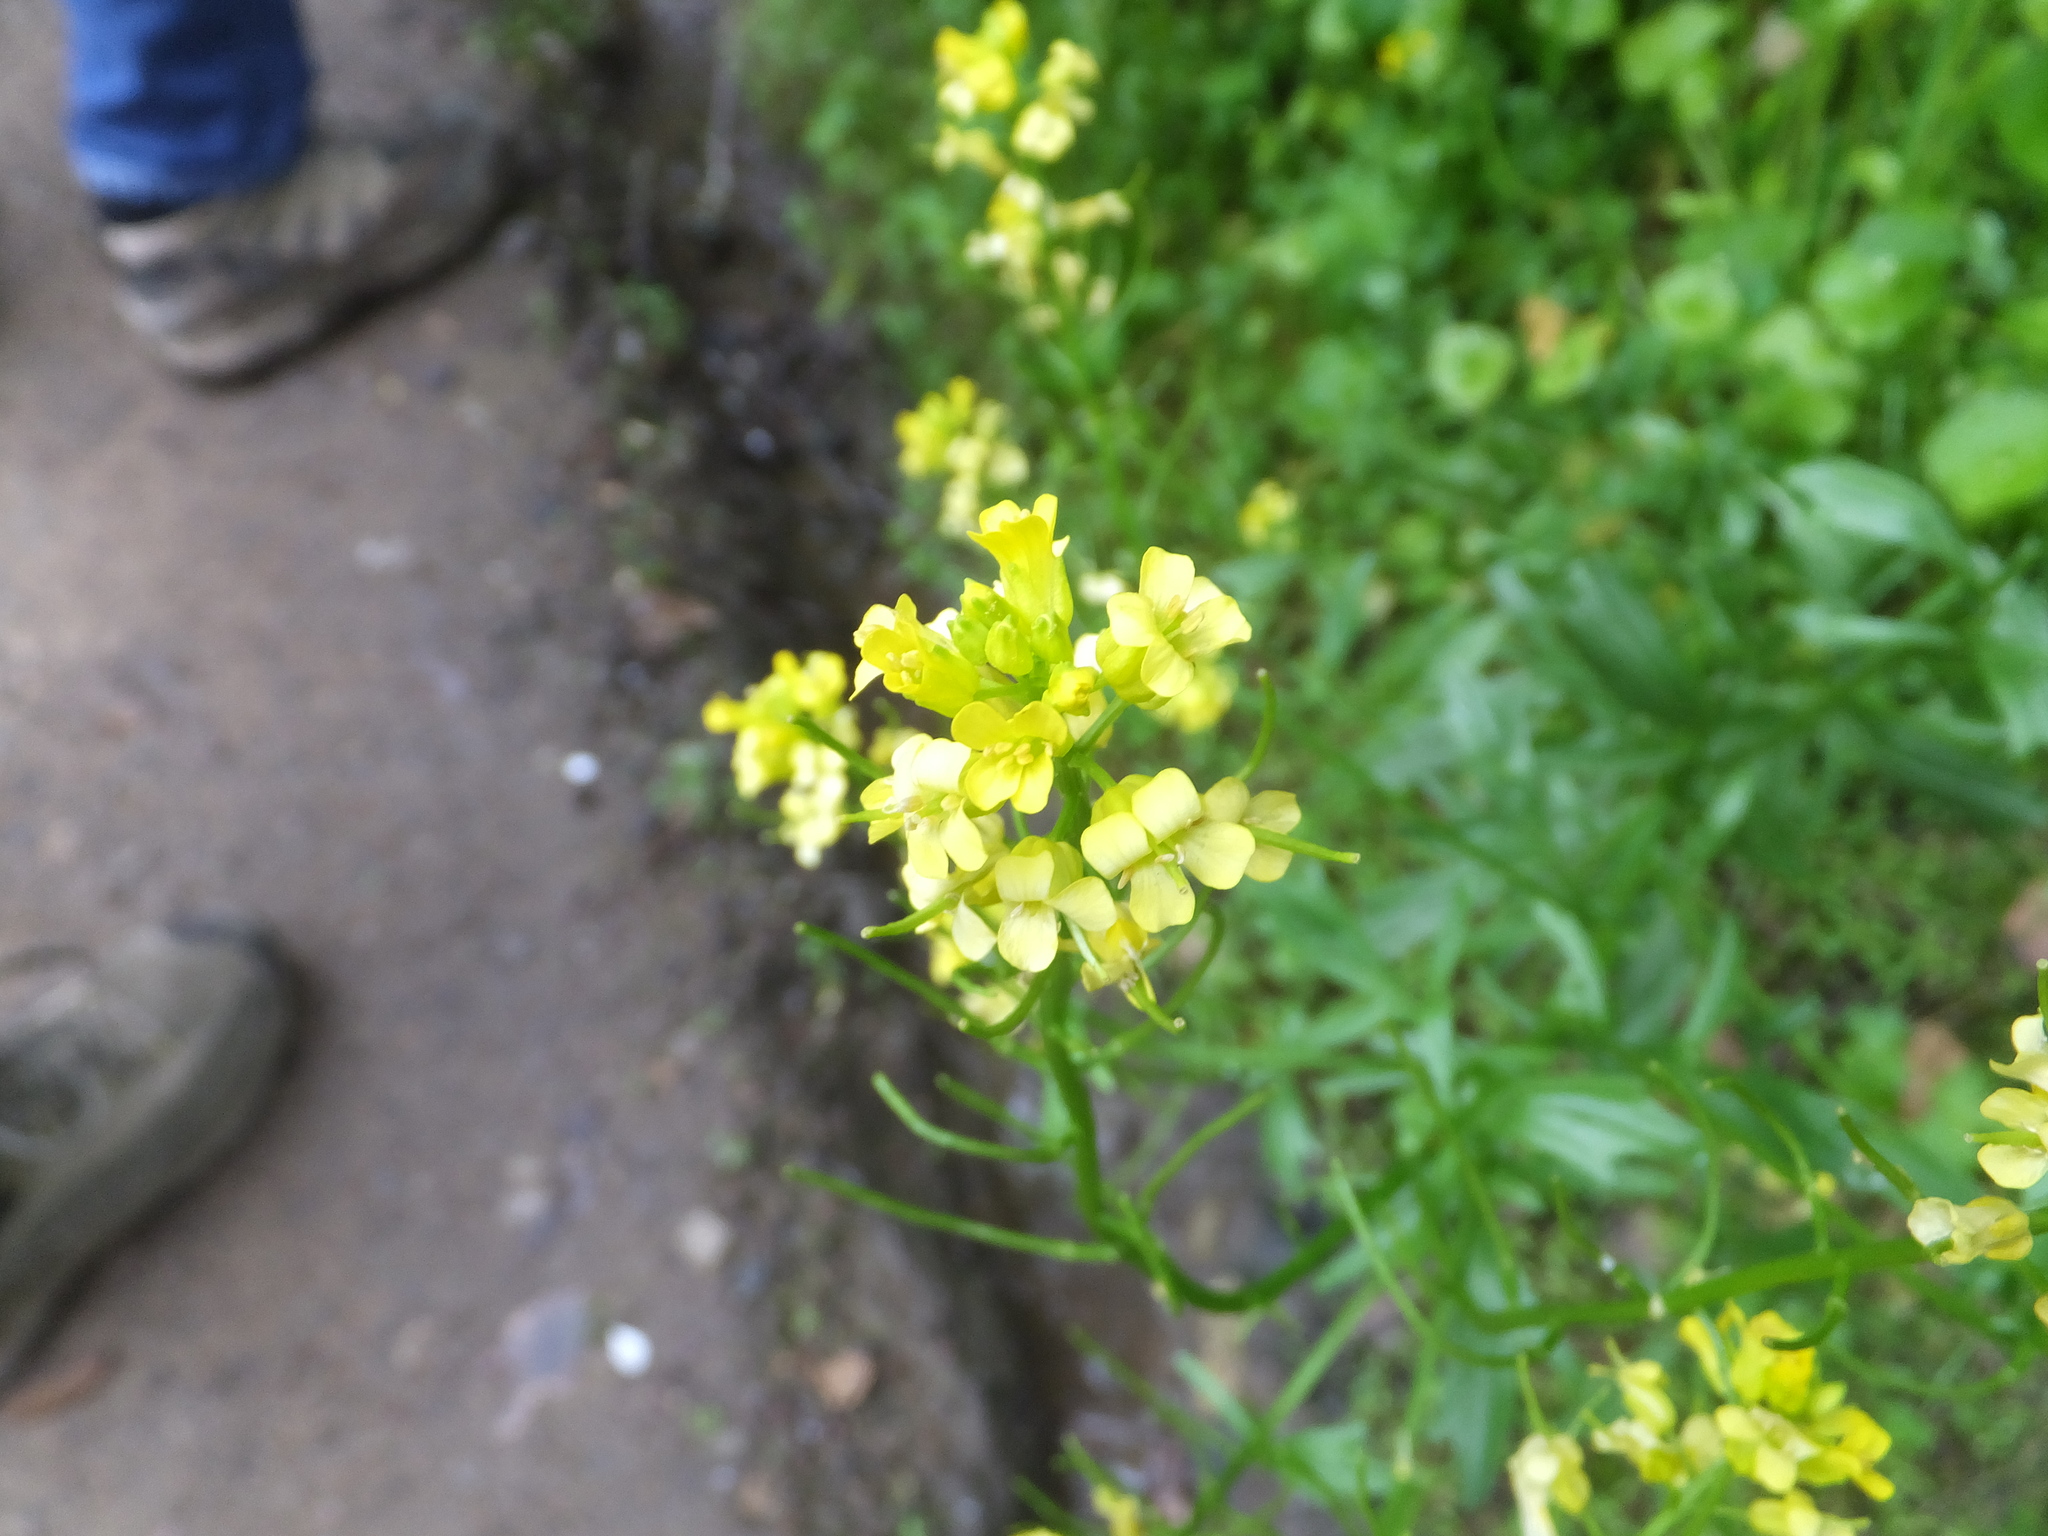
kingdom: Plantae
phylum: Tracheophyta
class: Magnoliopsida
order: Brassicales
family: Brassicaceae
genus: Barbarea
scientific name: Barbarea orthoceras
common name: American wintercress
